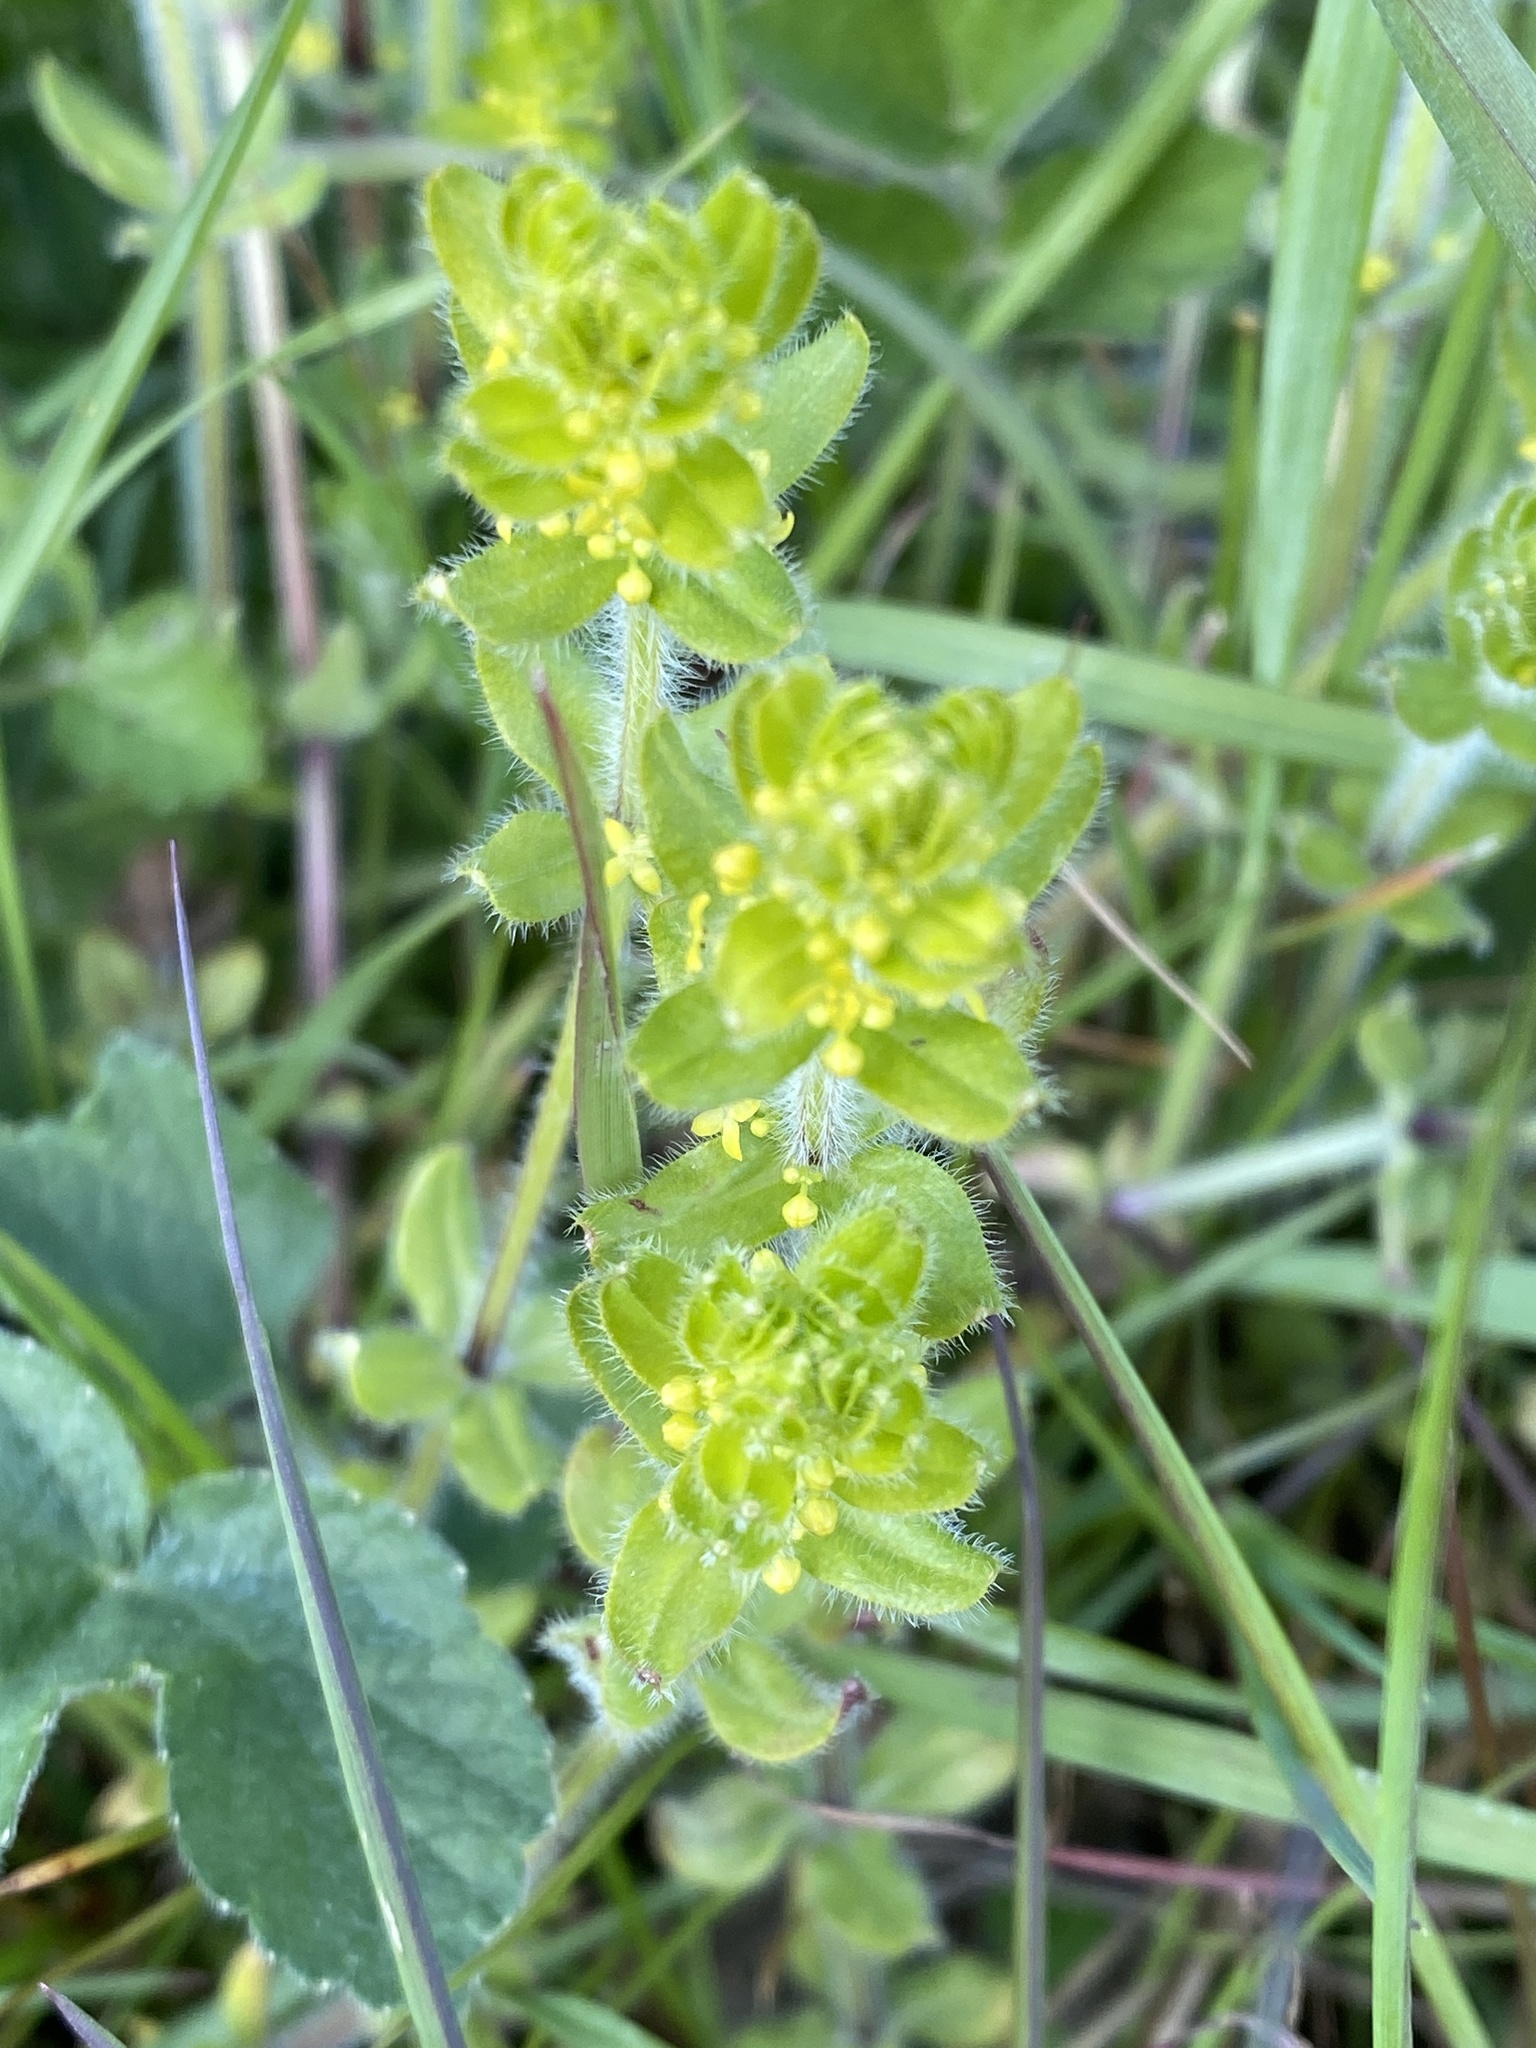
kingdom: Plantae
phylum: Tracheophyta
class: Magnoliopsida
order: Gentianales
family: Rubiaceae
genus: Cruciata
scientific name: Cruciata laevipes
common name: Crosswort
